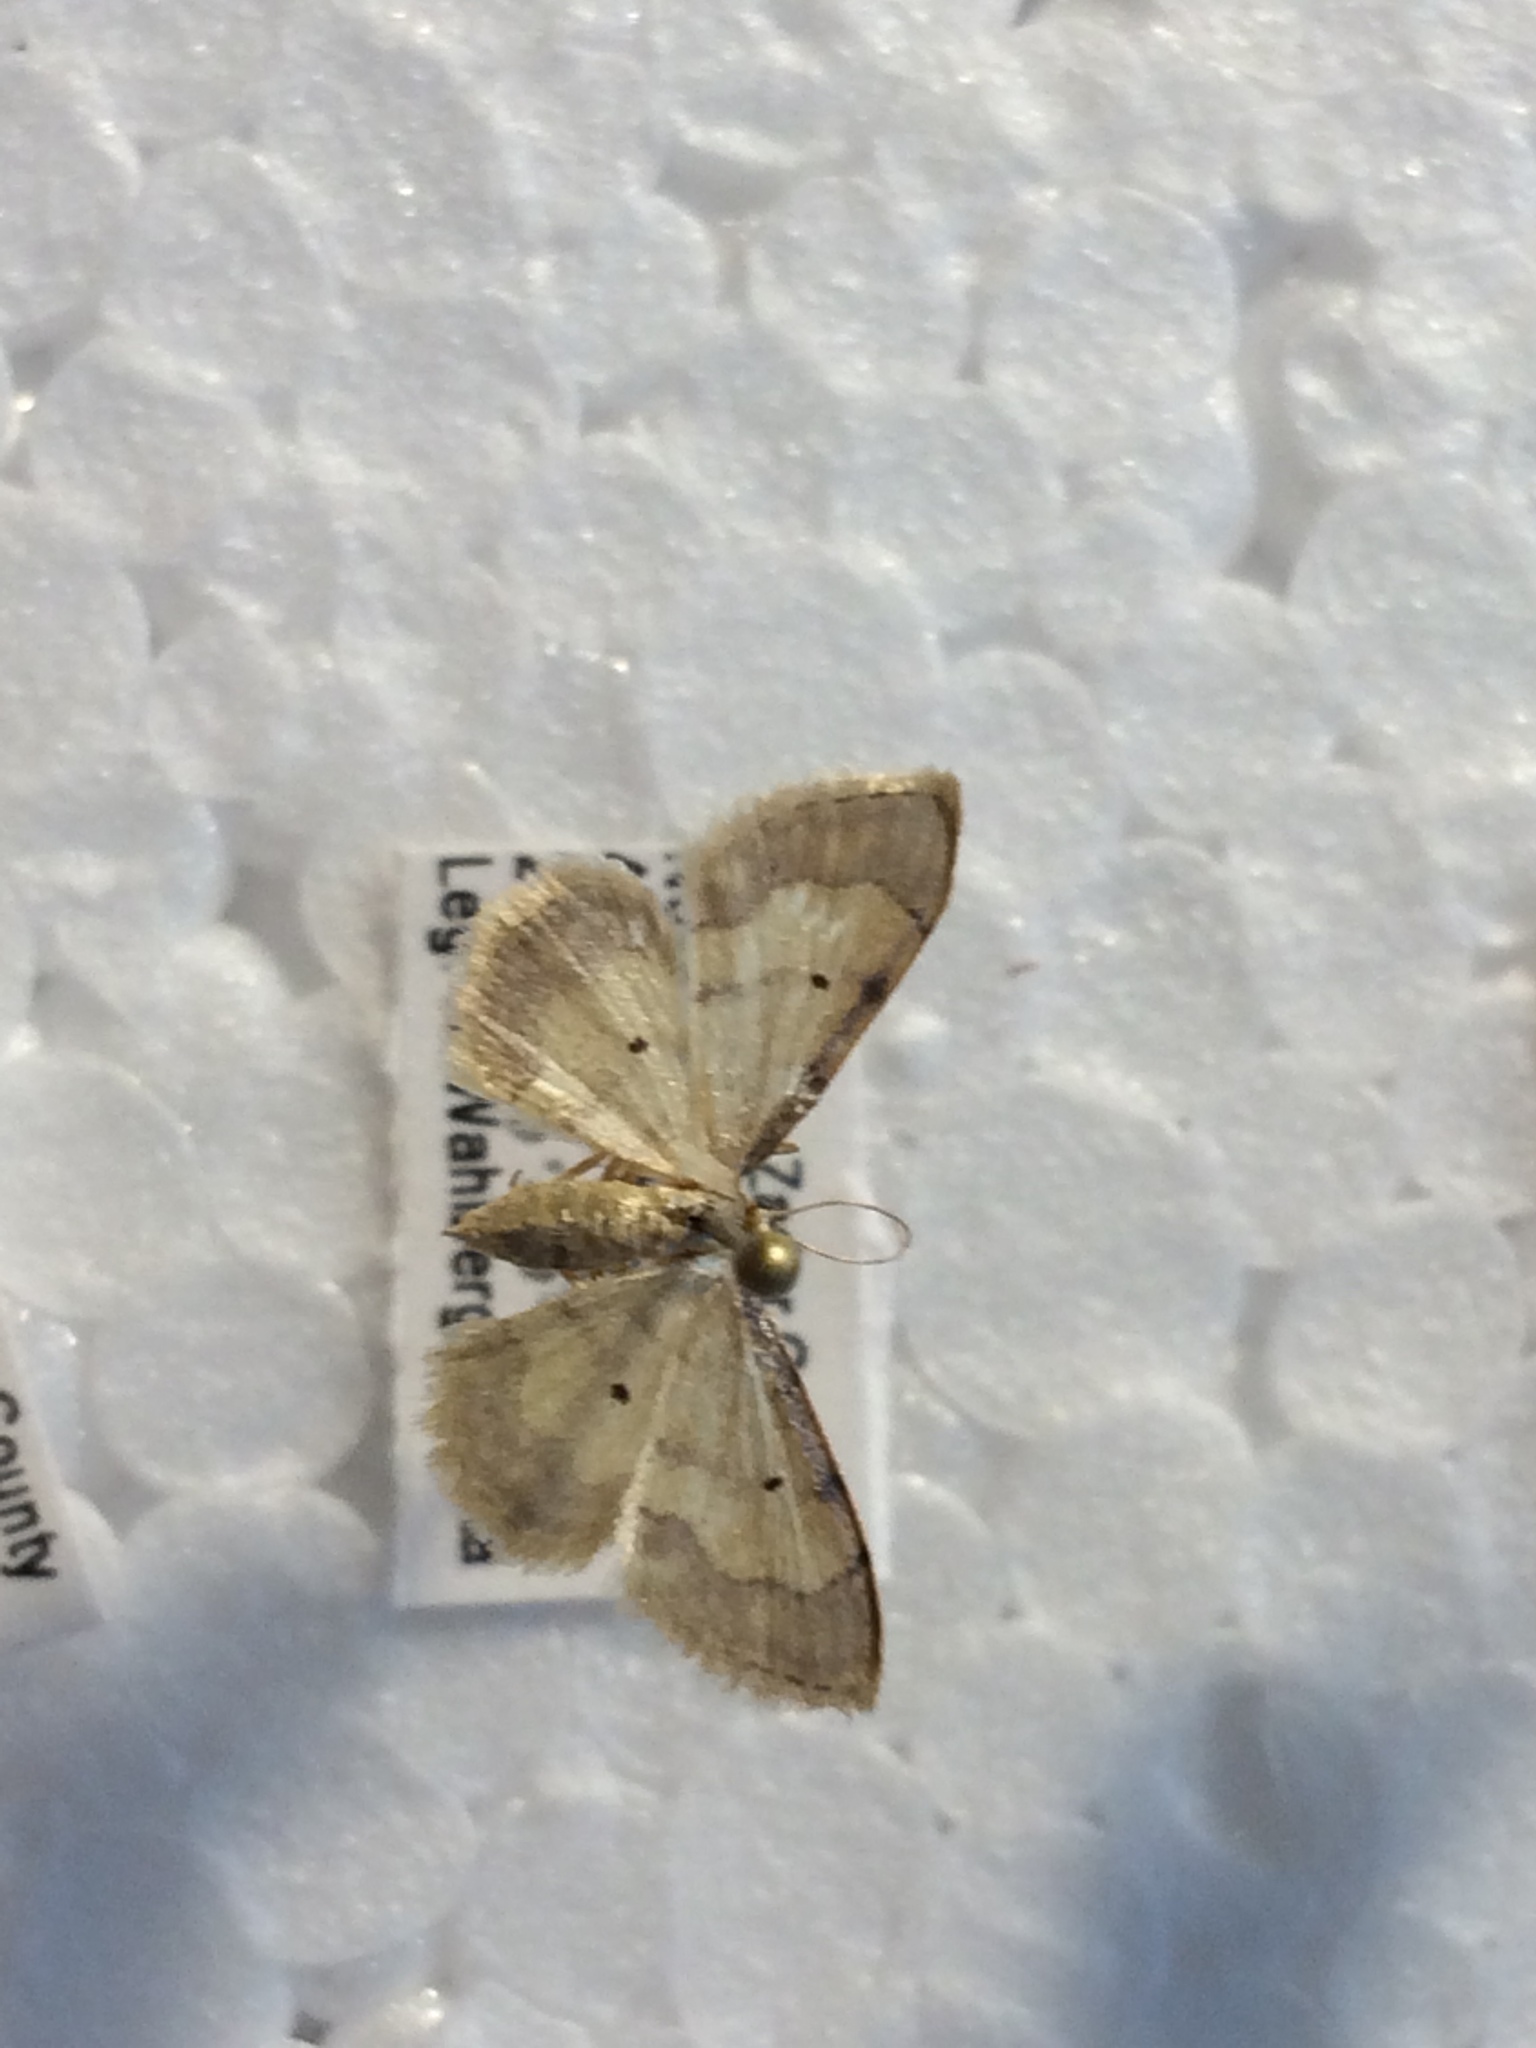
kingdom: Animalia
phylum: Arthropoda
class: Insecta
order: Lepidoptera
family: Geometridae
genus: Idaea
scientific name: Idaea politaria
